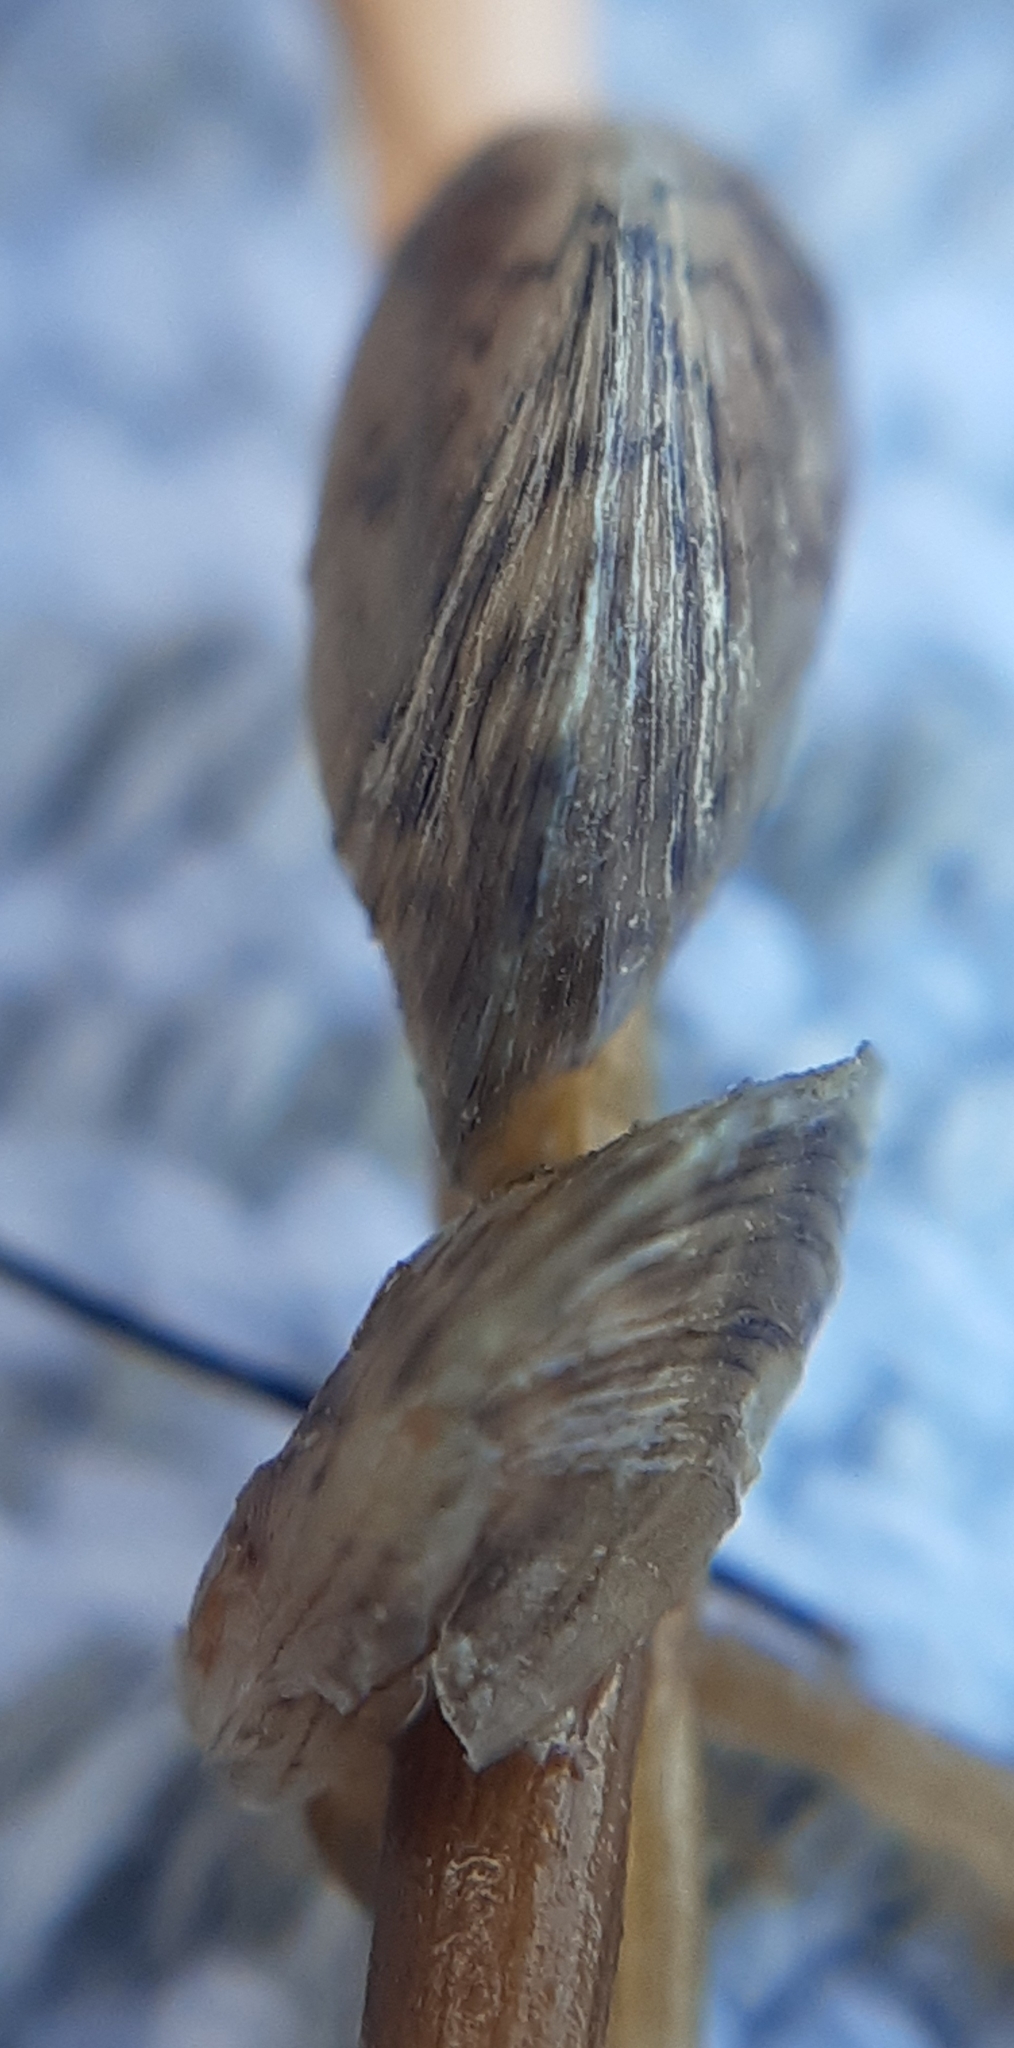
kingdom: Animalia
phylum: Mollusca
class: Bivalvia
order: Myida
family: Dreissenidae
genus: Dreissena
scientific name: Dreissena polymorpha
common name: Zebra mussel
